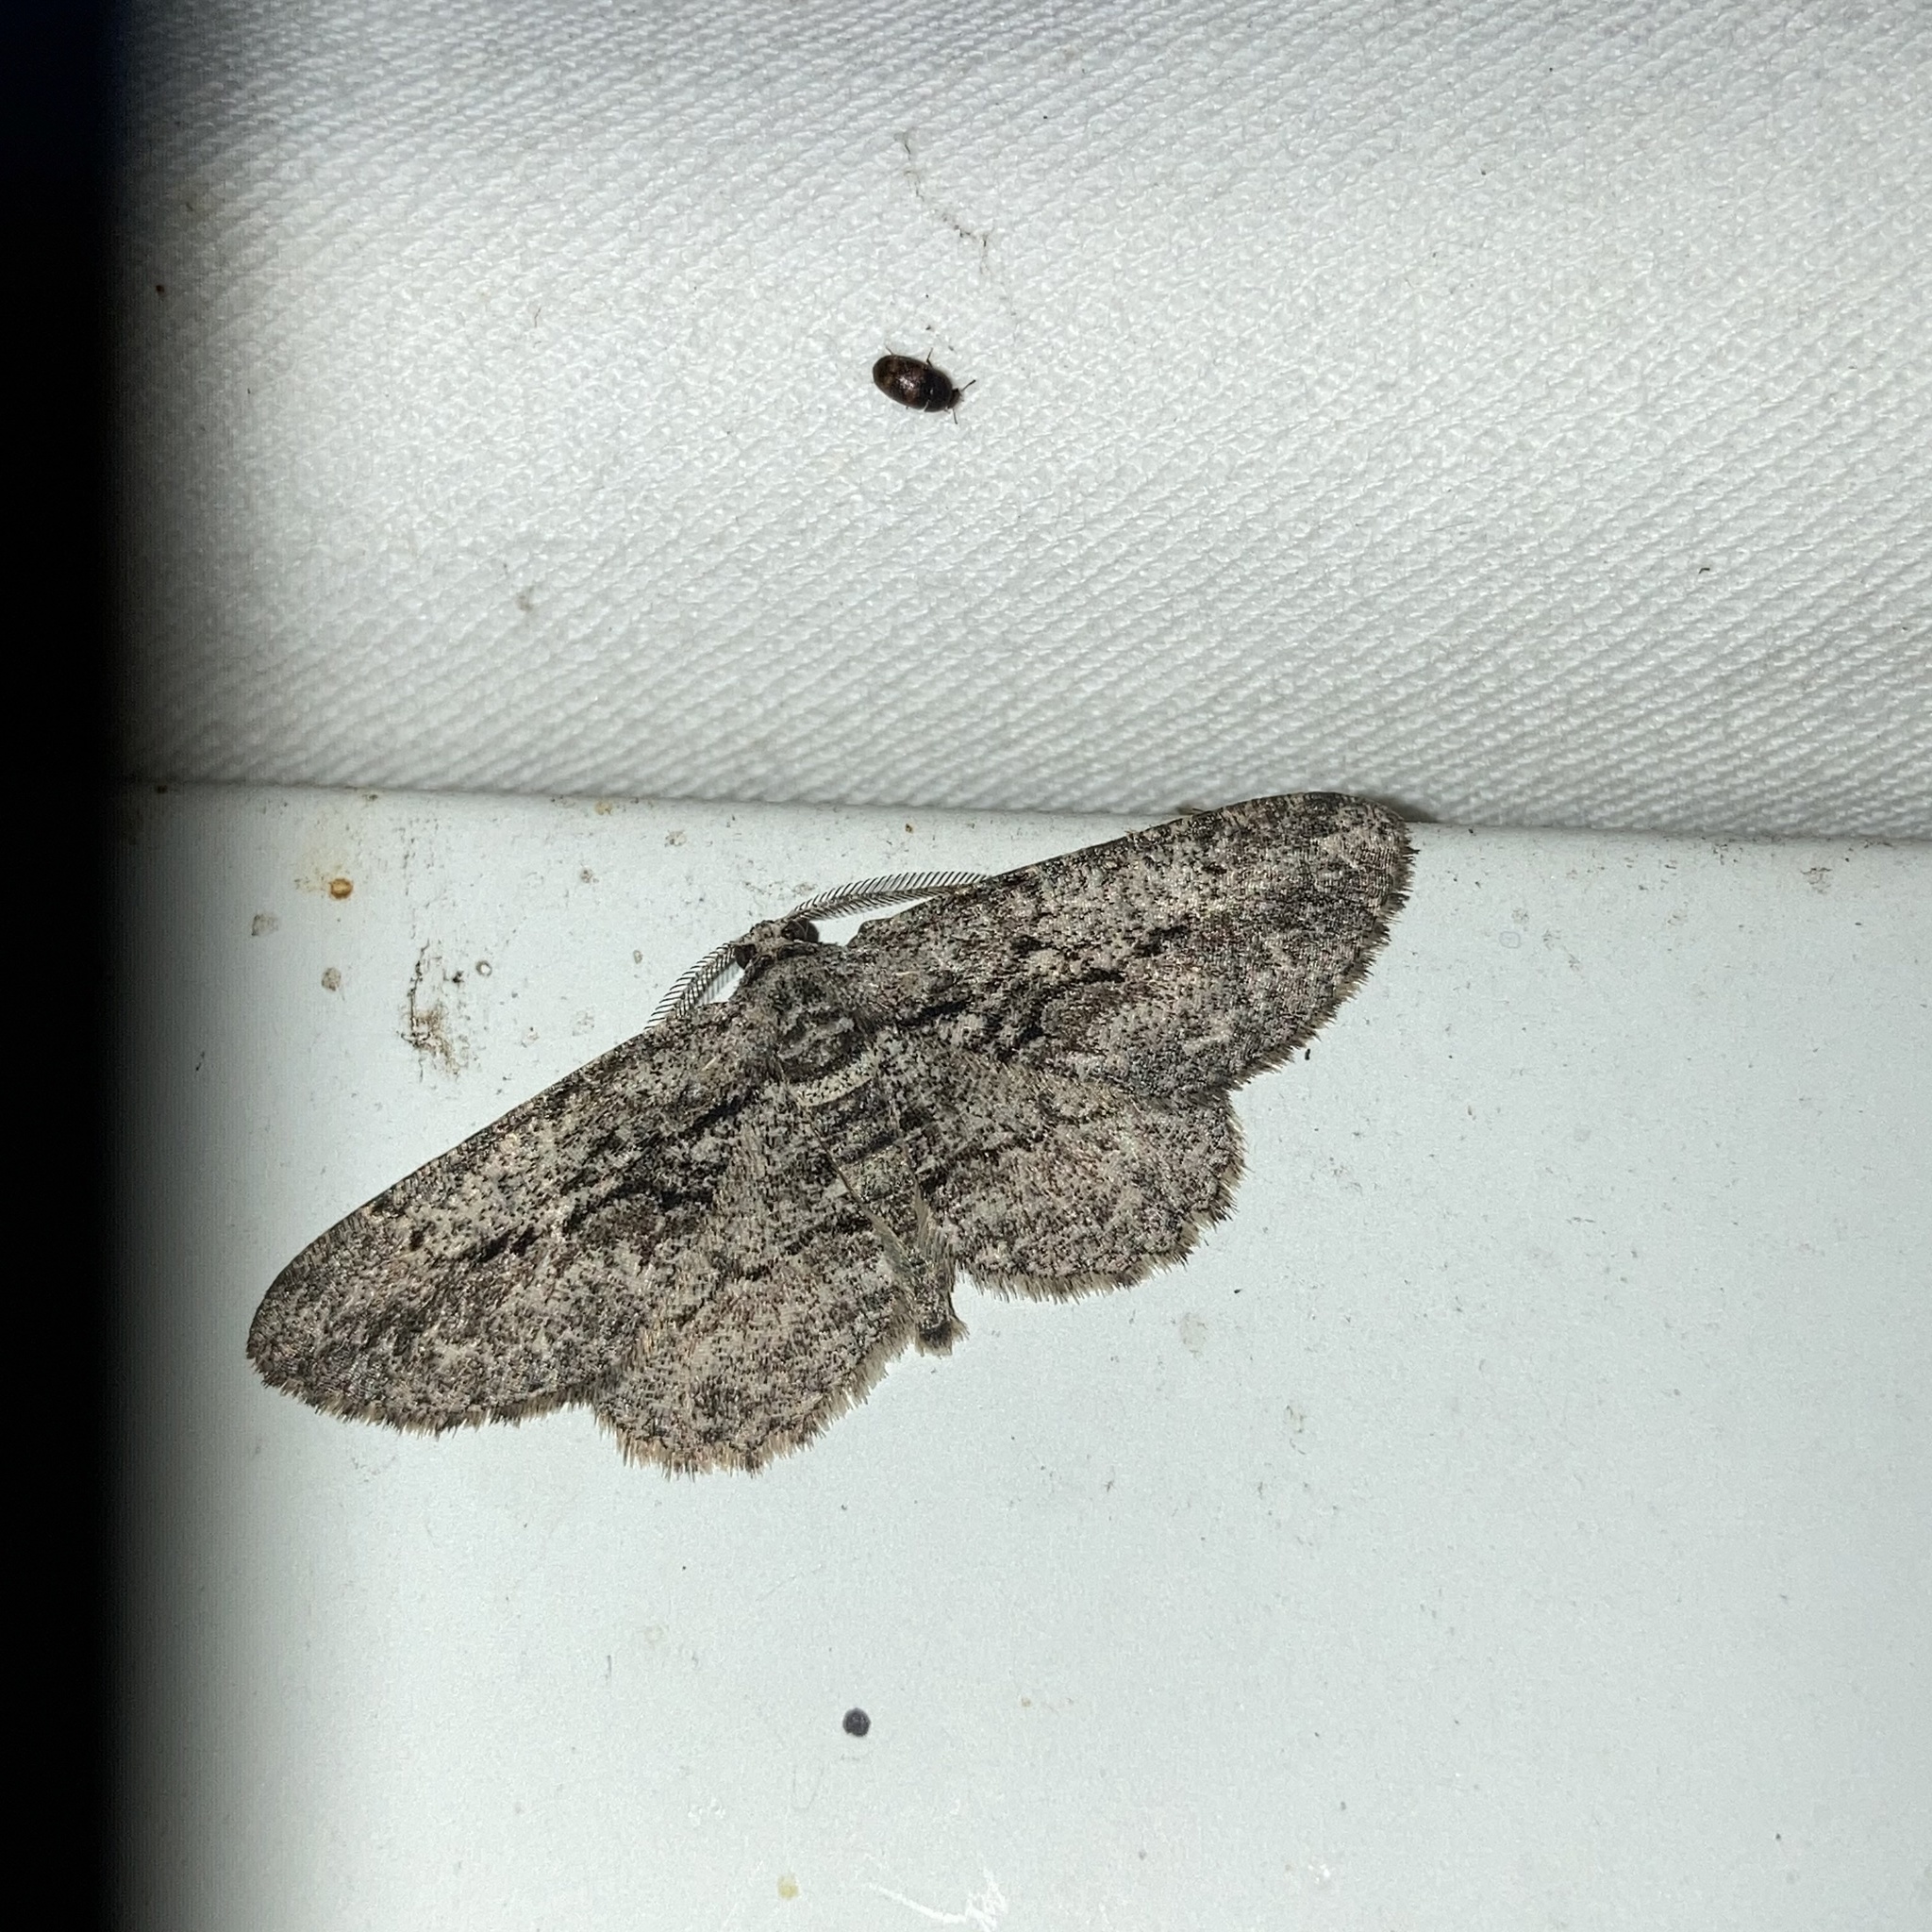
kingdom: Animalia
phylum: Arthropoda
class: Insecta
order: Lepidoptera
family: Geometridae
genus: Anavitrinella
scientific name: Anavitrinella pampinaria
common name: Common gray
